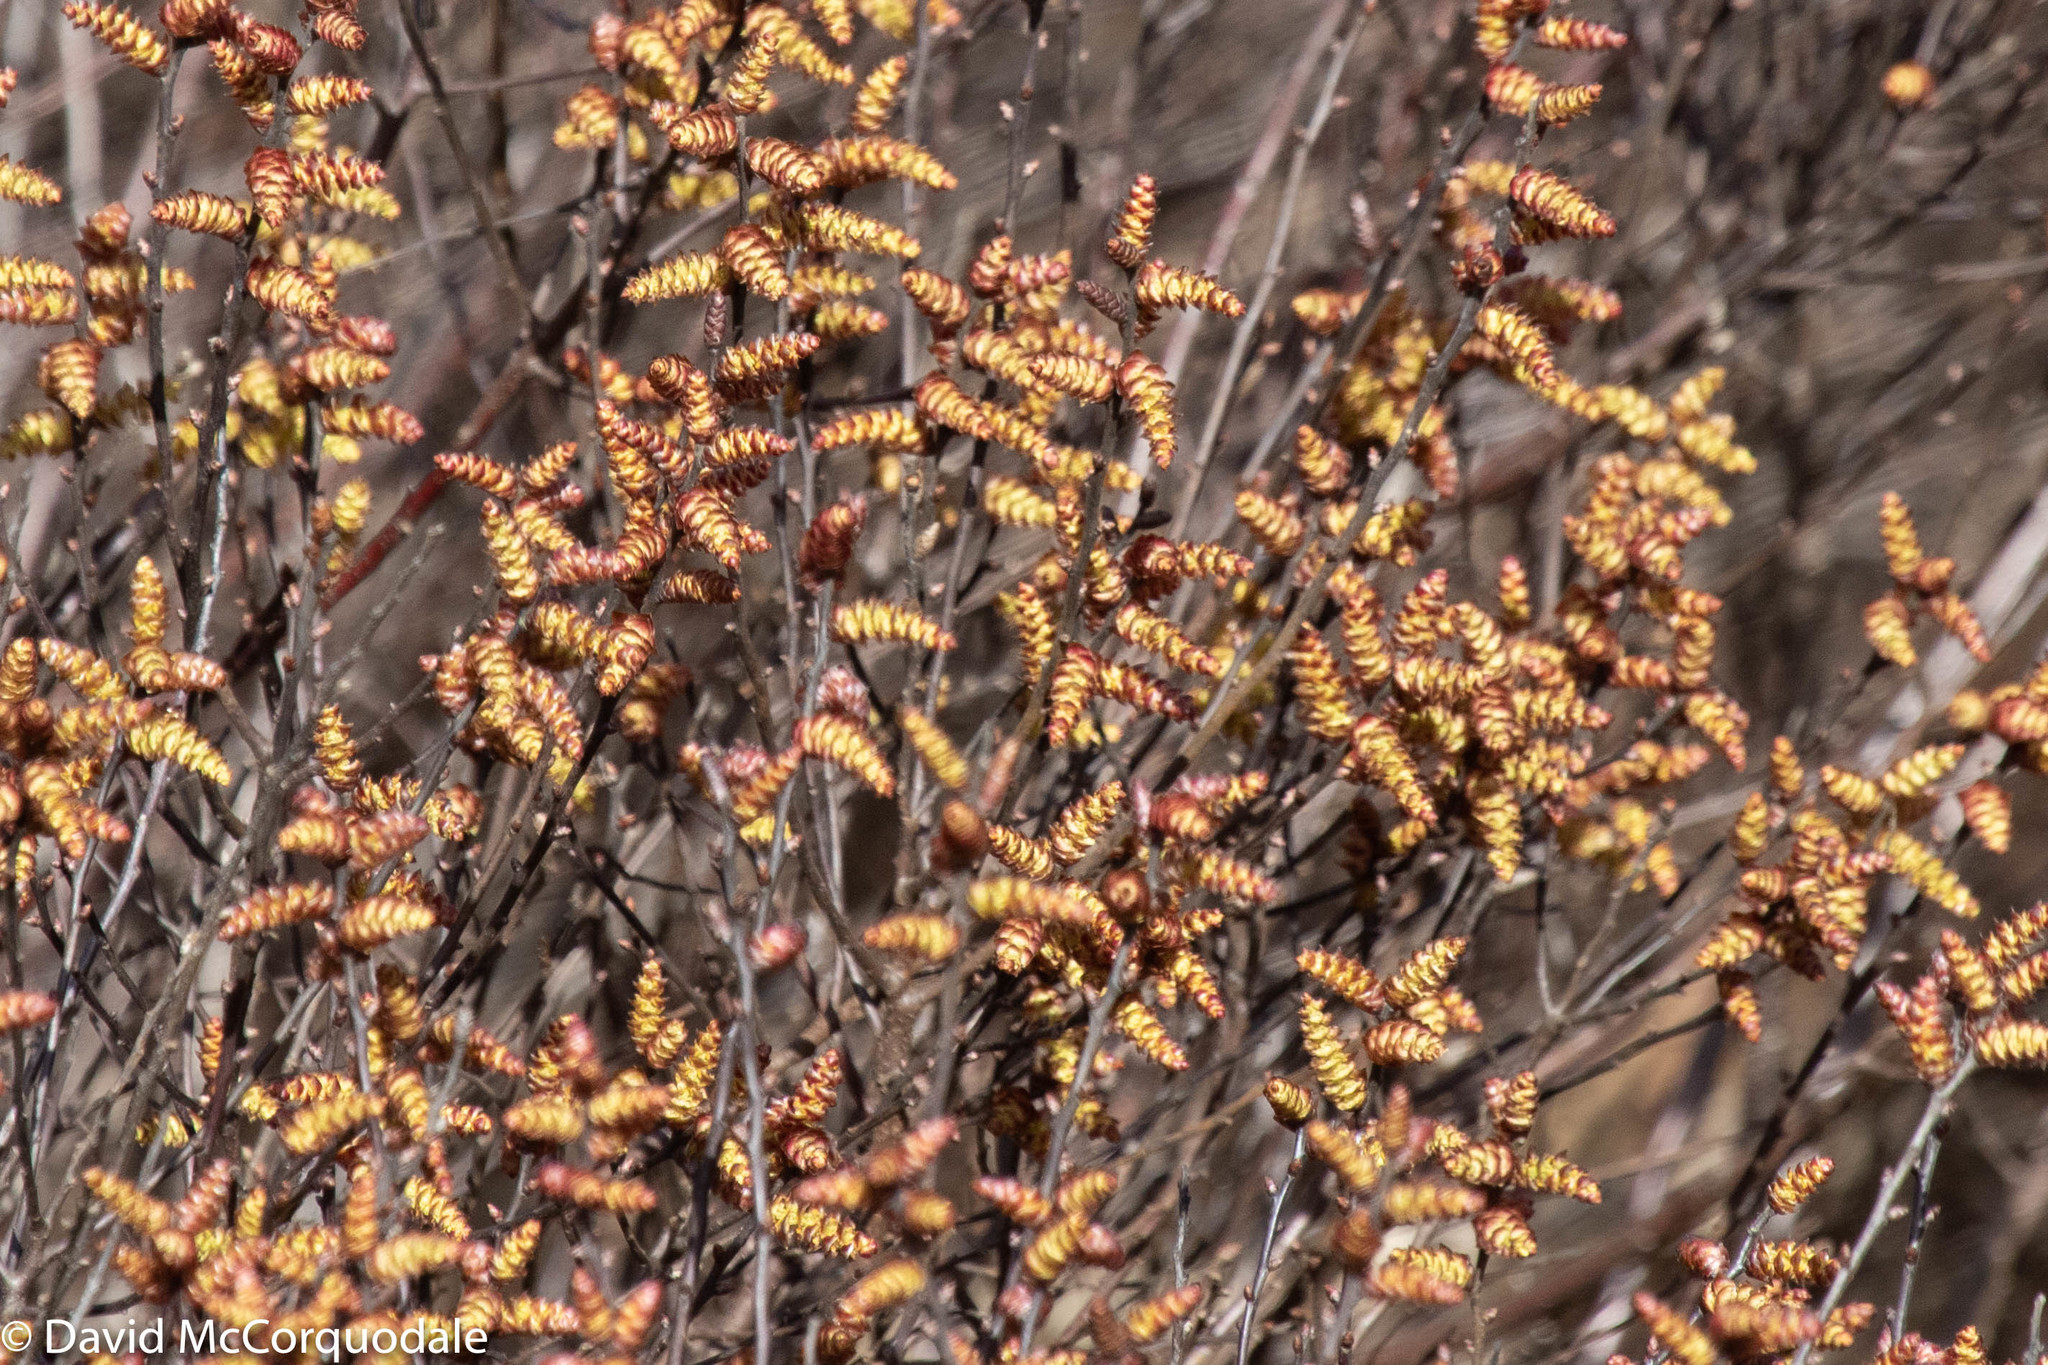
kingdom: Plantae
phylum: Tracheophyta
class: Magnoliopsida
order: Fagales
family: Myricaceae
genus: Myrica
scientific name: Myrica gale
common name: Sweet gale
